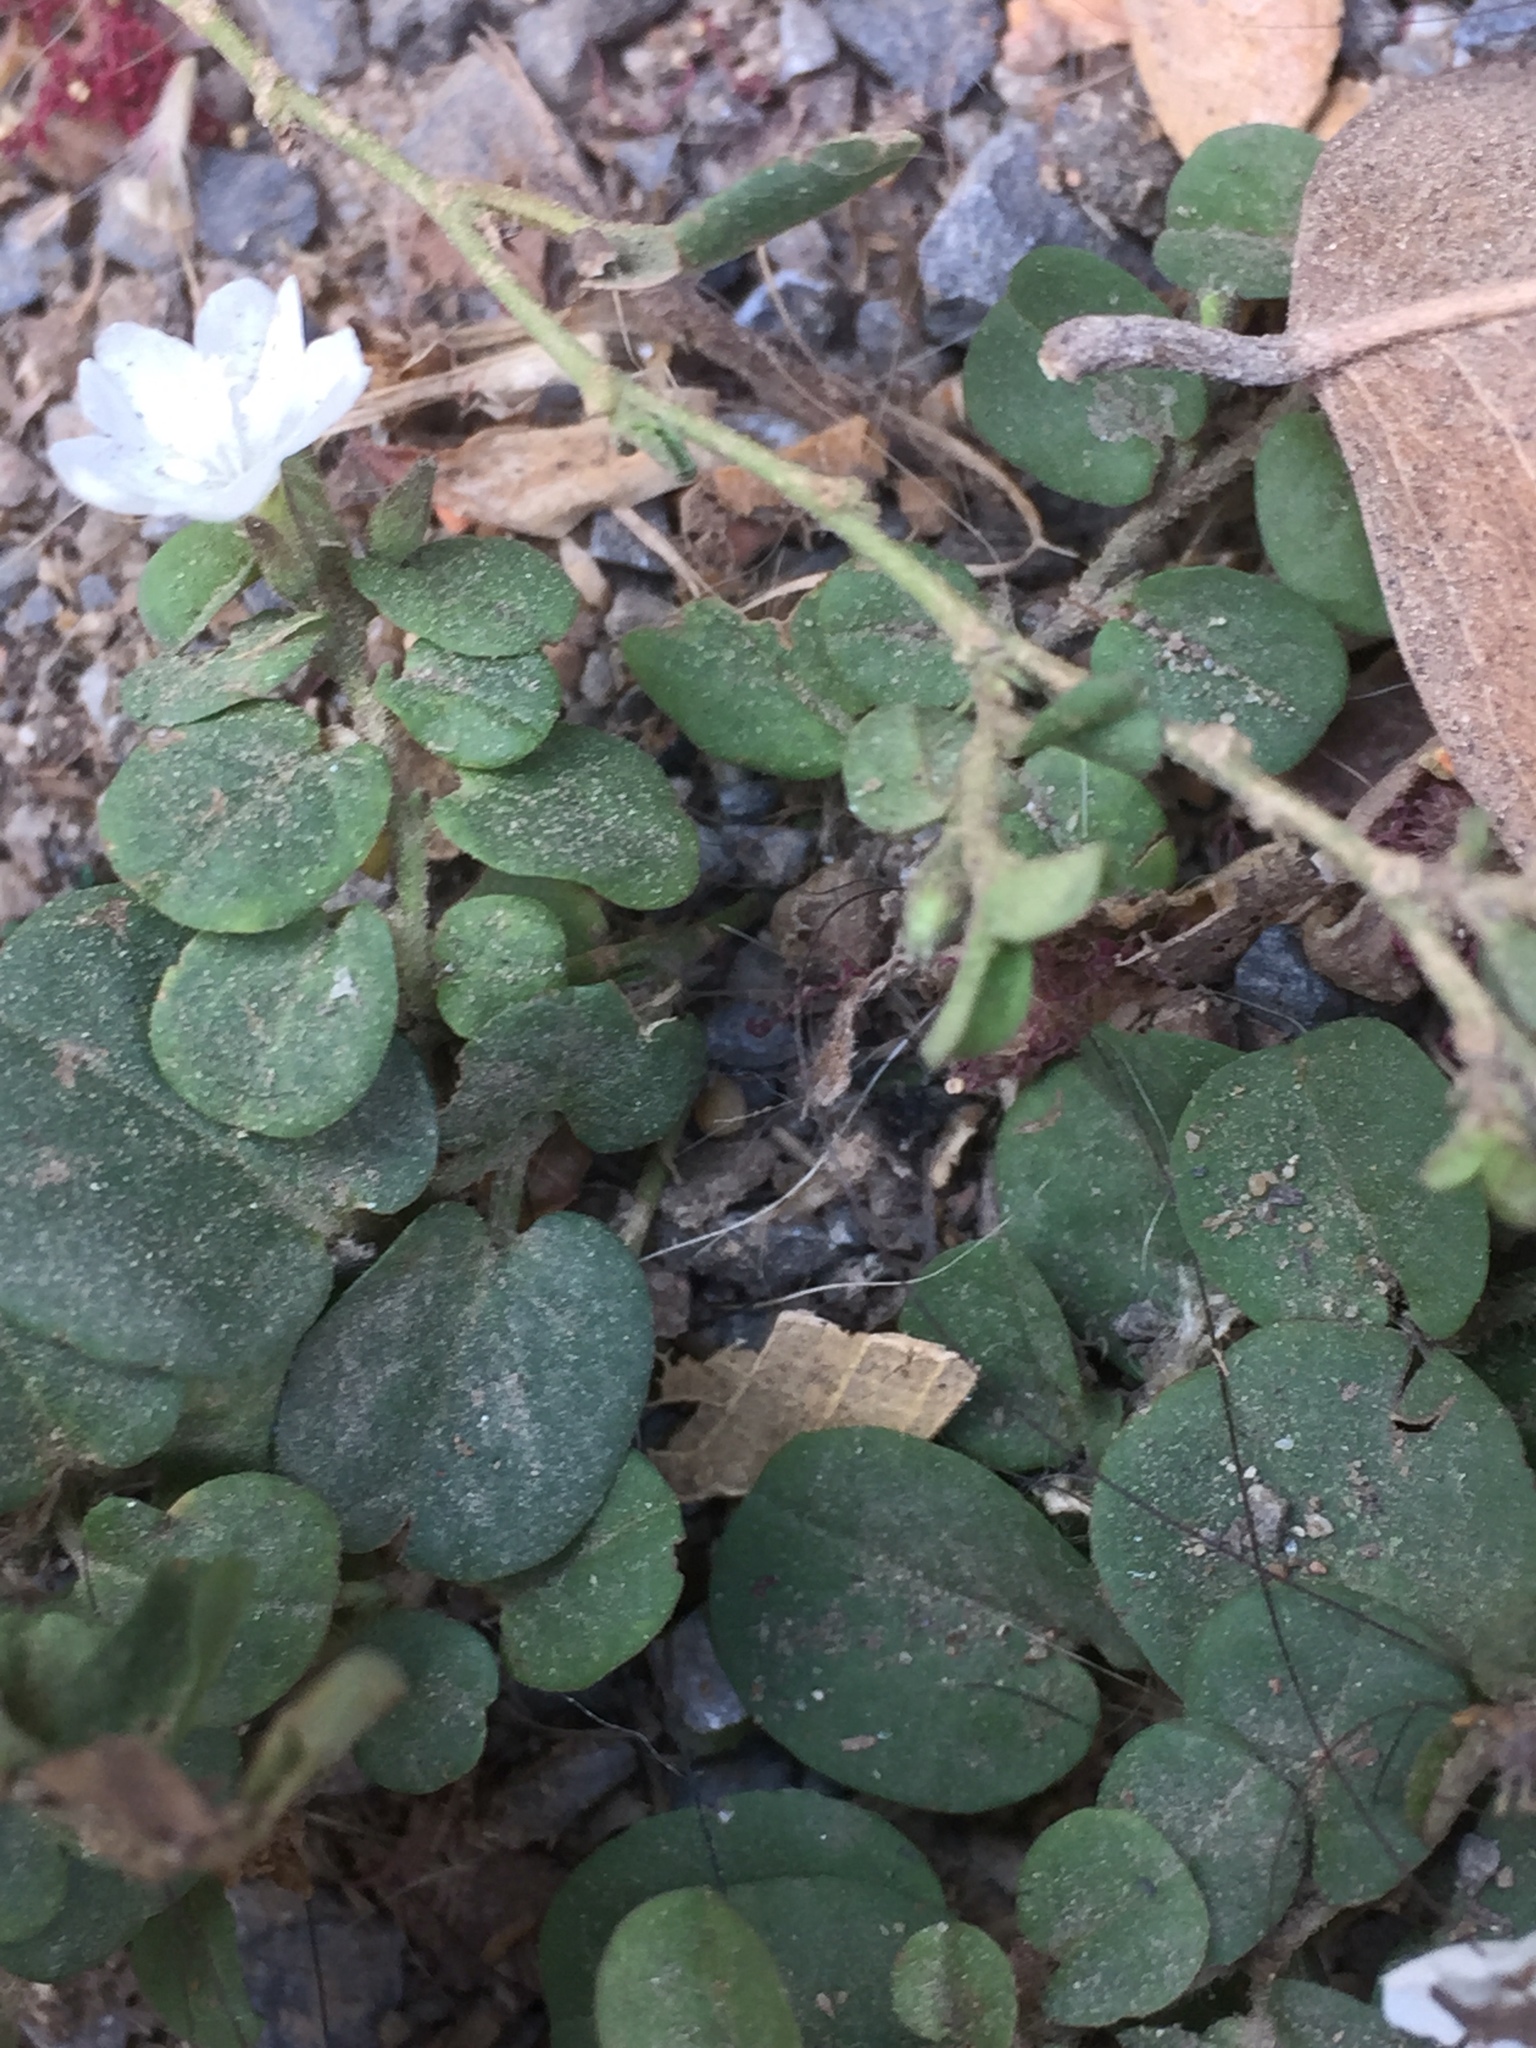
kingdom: Plantae
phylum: Tracheophyta
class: Magnoliopsida
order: Solanales
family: Convolvulaceae
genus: Evolvulus
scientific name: Evolvulus nummularius
